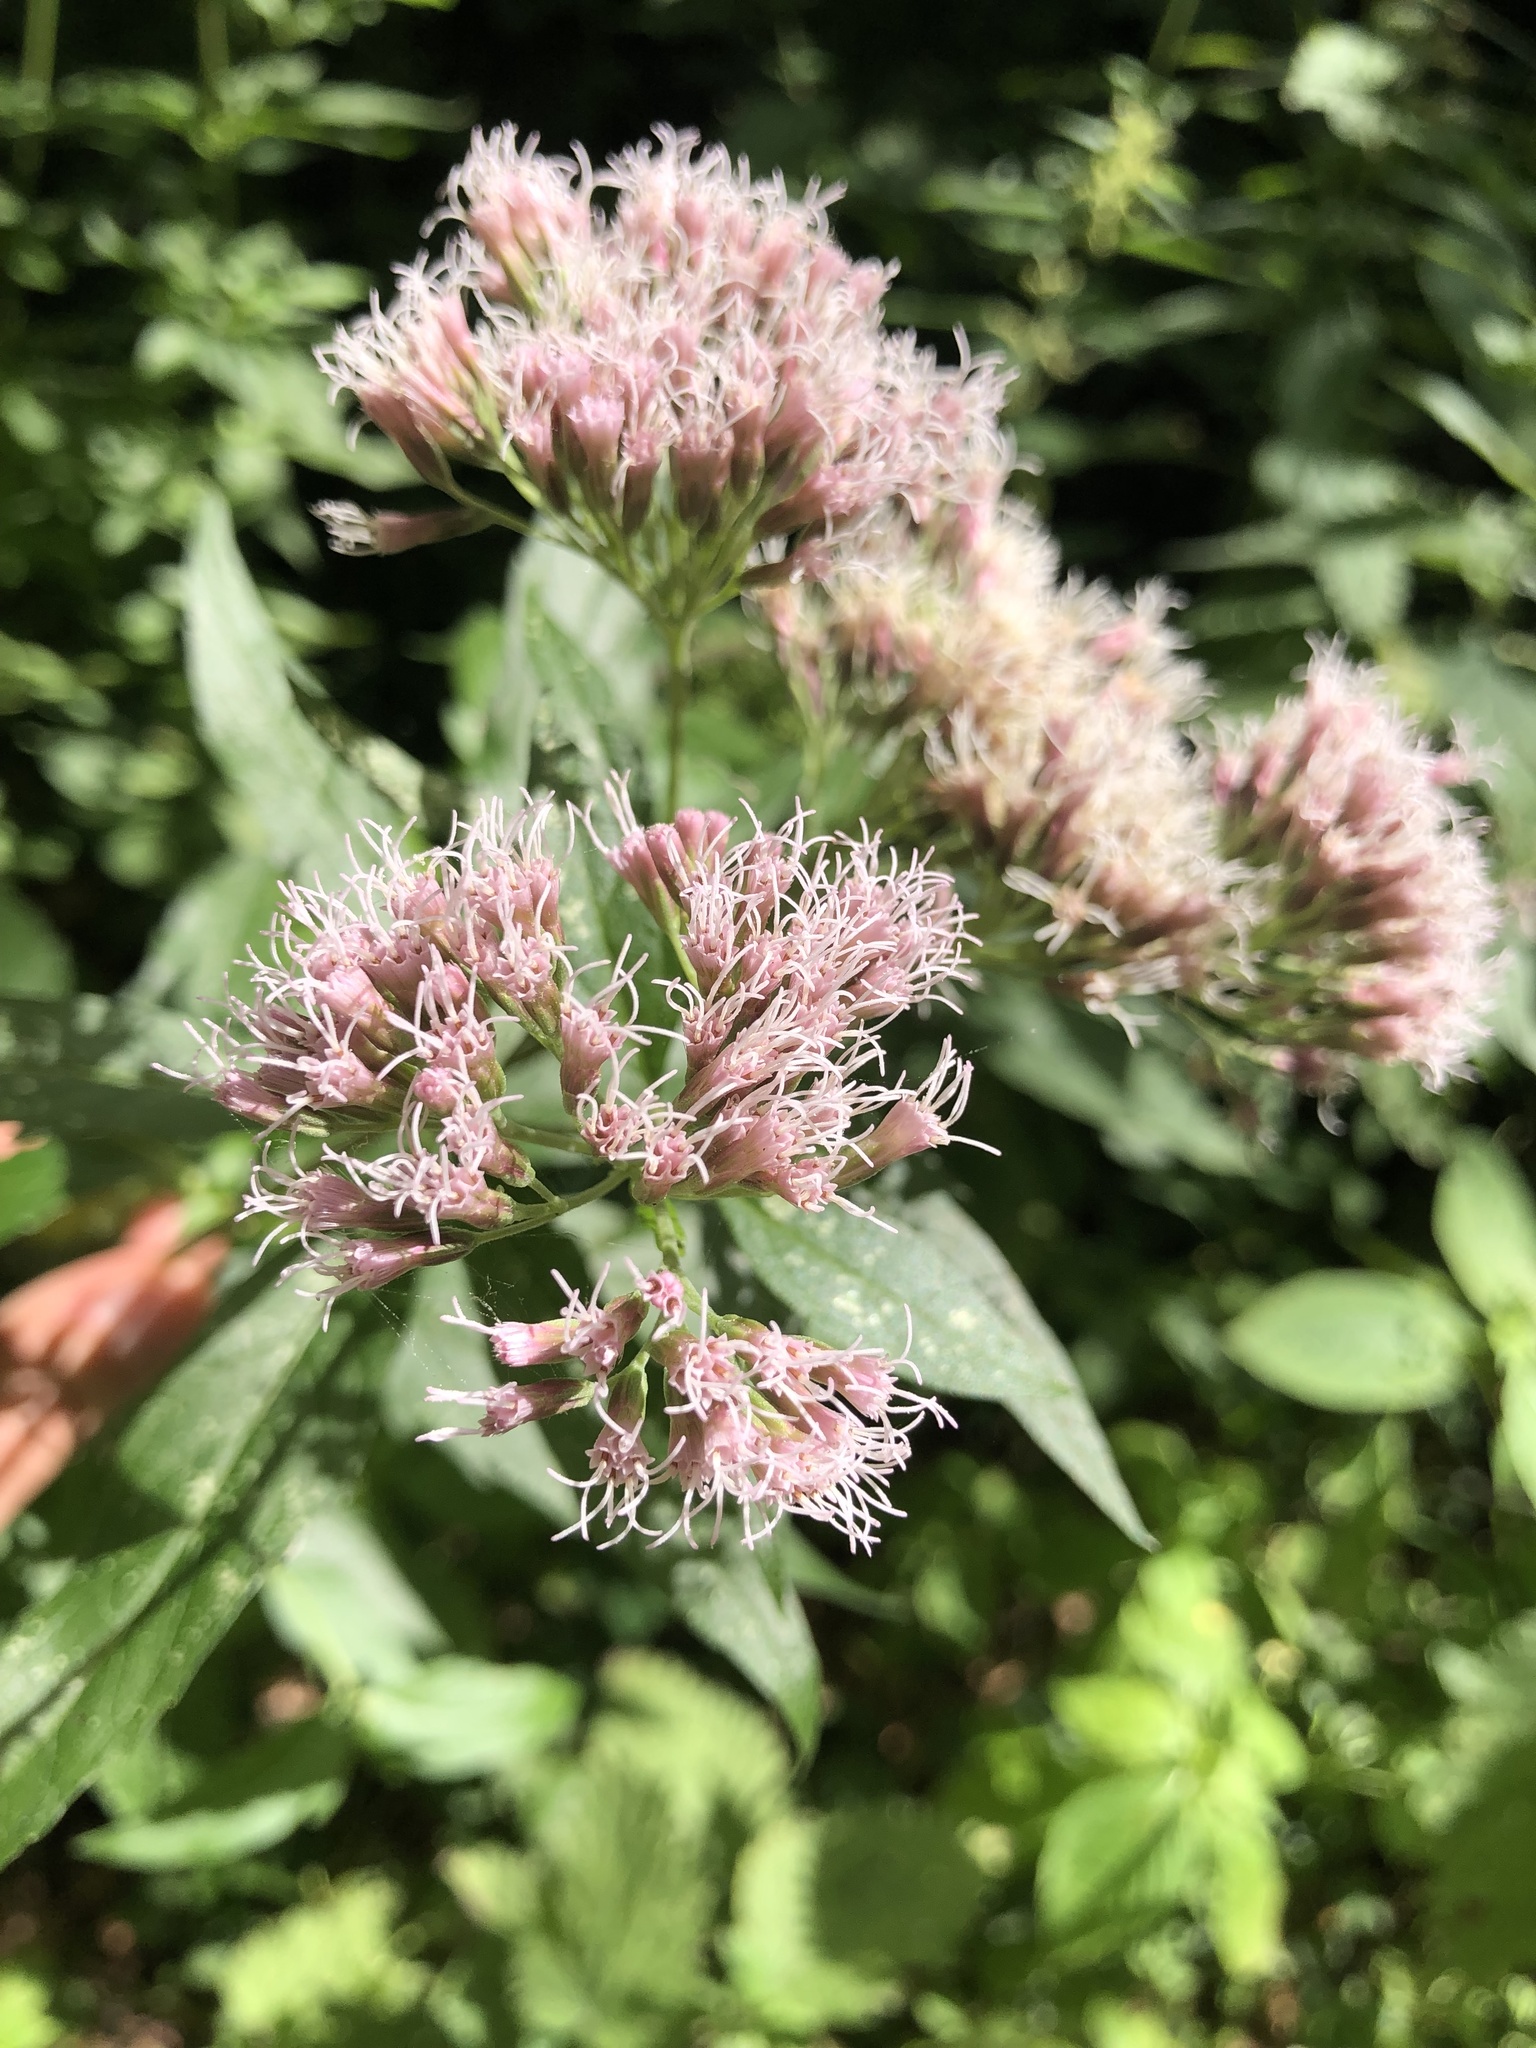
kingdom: Plantae
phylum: Tracheophyta
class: Magnoliopsida
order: Asterales
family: Asteraceae
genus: Eupatorium
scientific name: Eupatorium cannabinum
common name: Hemp-agrimony
